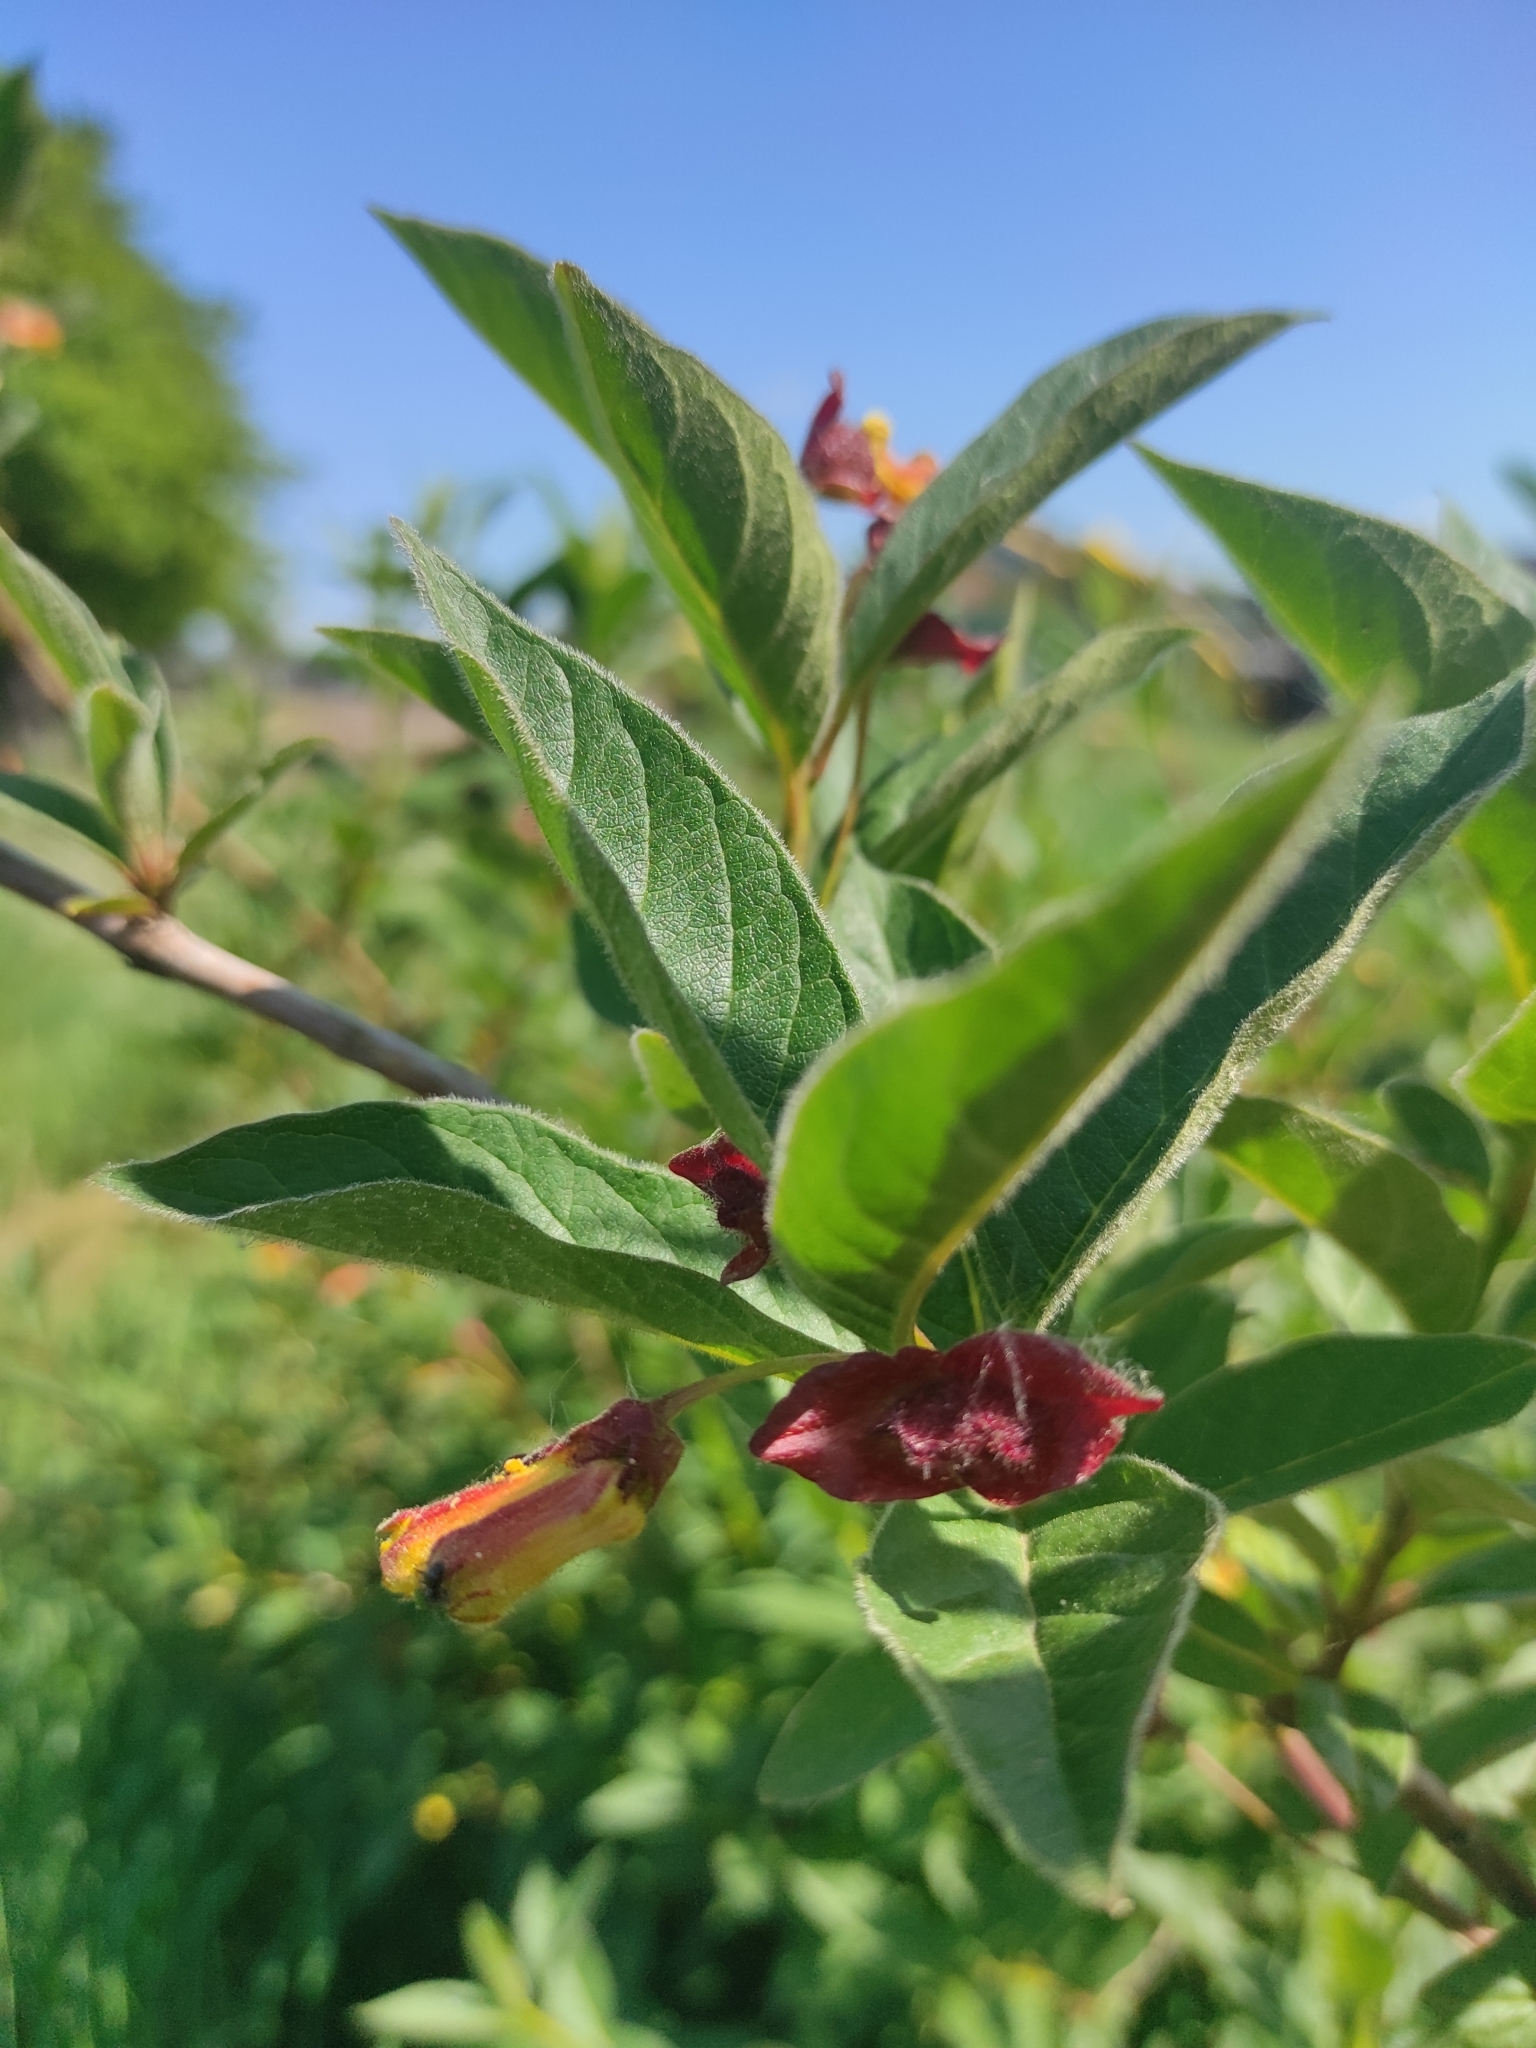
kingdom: Plantae
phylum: Tracheophyta
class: Magnoliopsida
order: Dipsacales
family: Caprifoliaceae
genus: Lonicera
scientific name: Lonicera involucrata
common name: Californian honeysuckle
